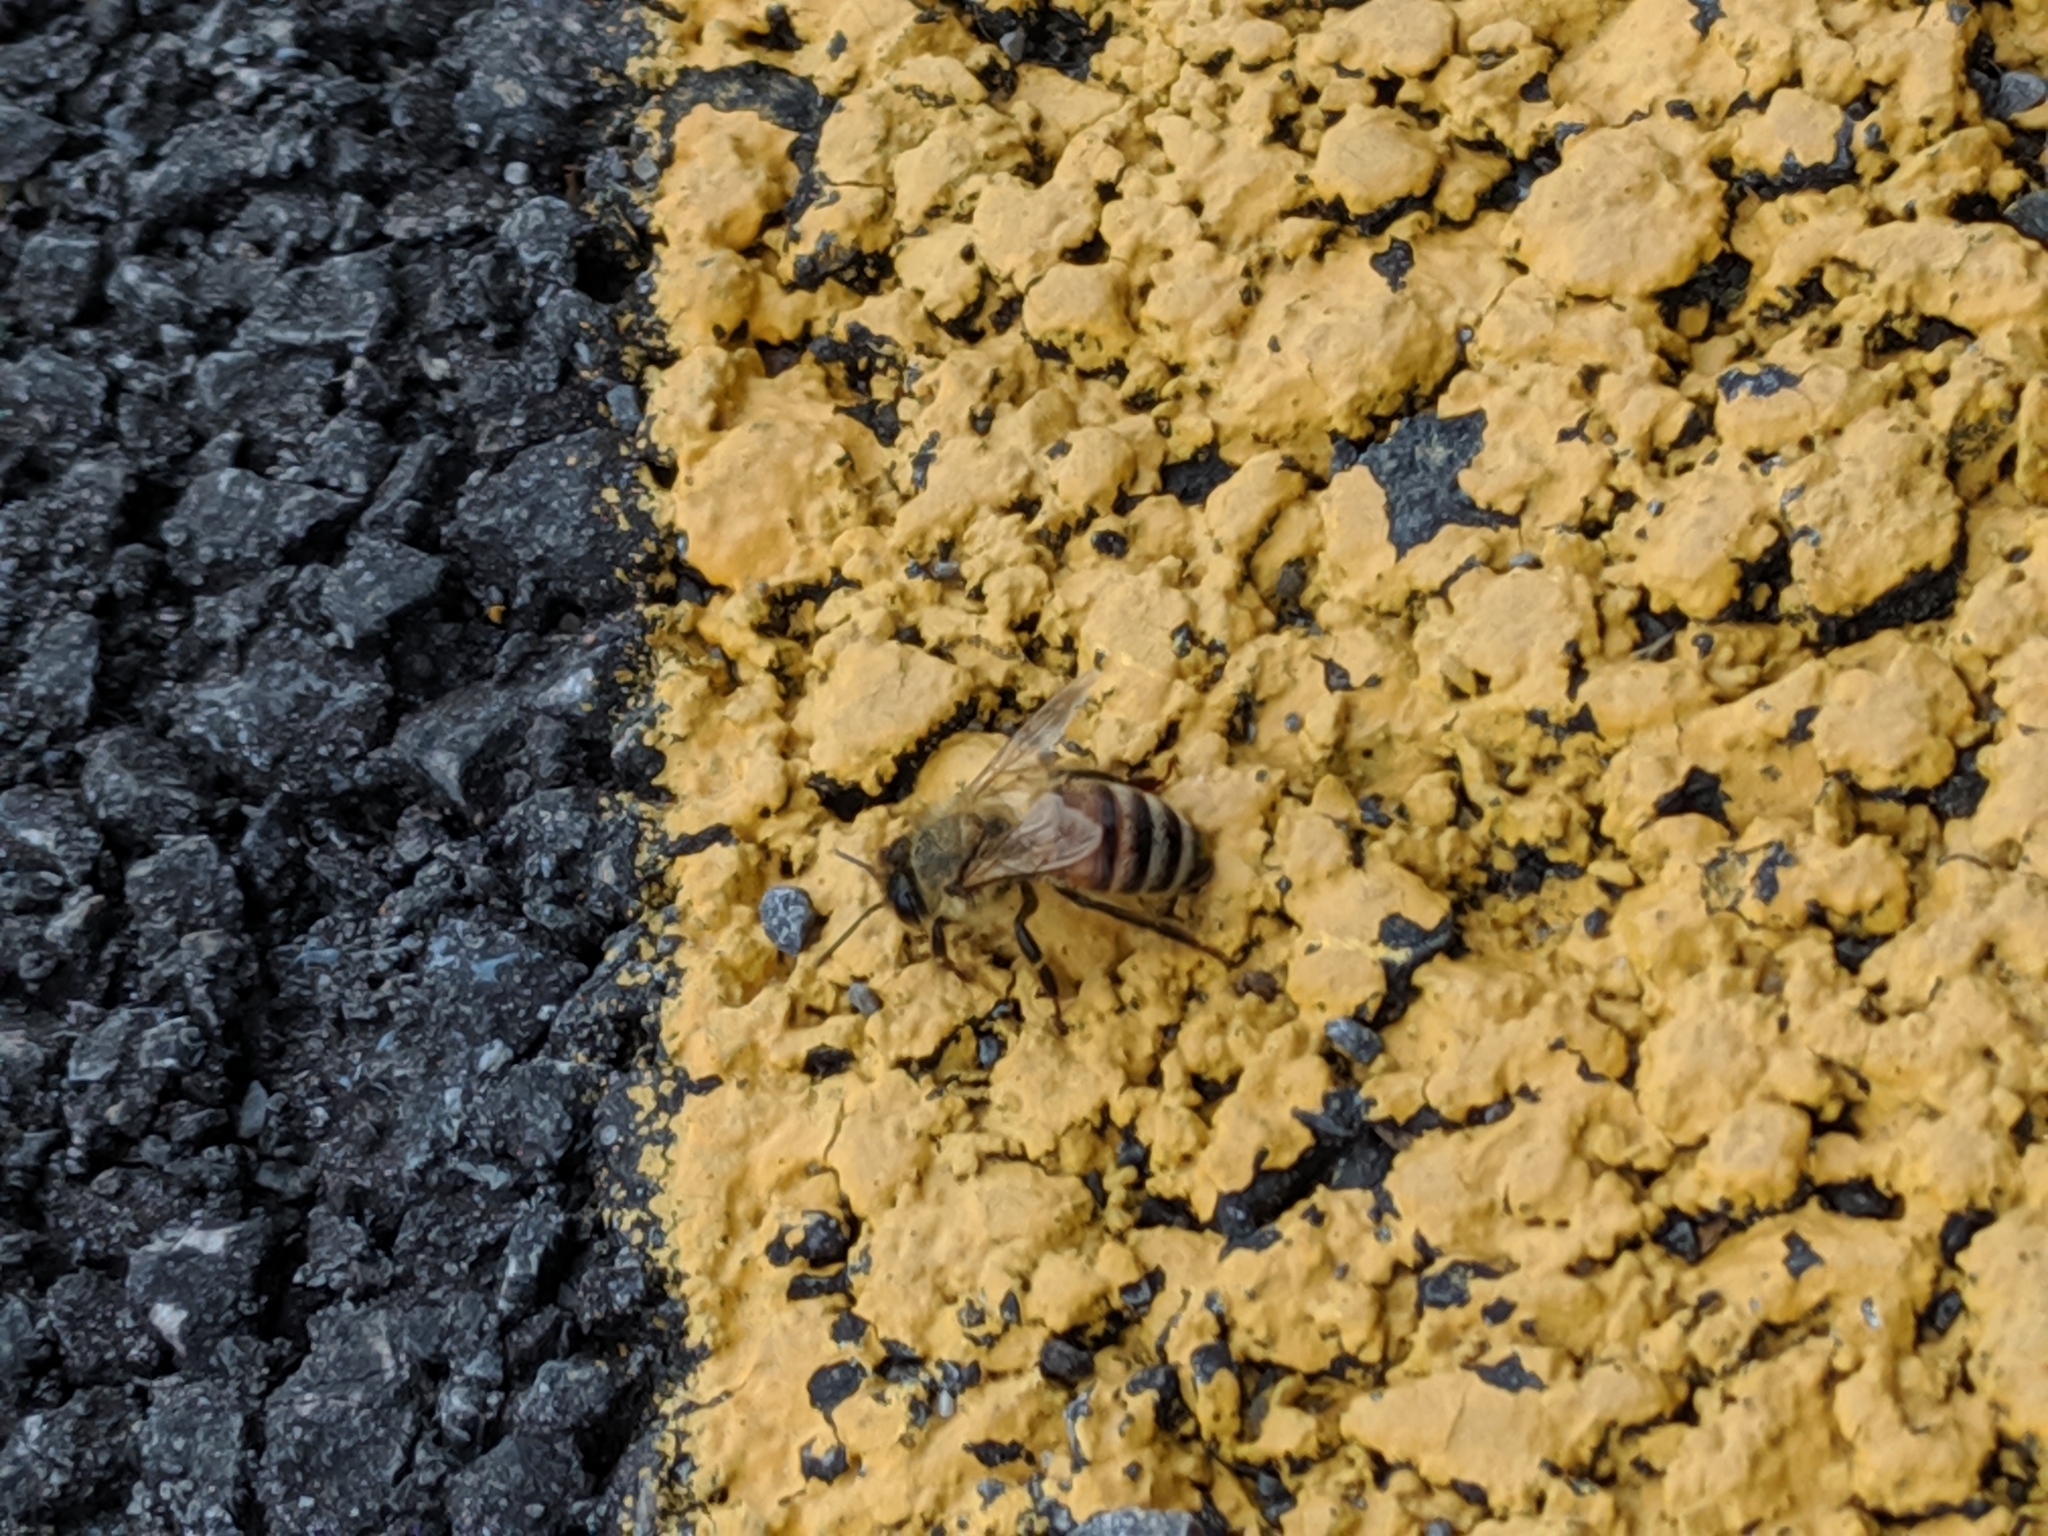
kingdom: Animalia
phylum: Arthropoda
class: Insecta
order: Hymenoptera
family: Apidae
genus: Apis
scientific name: Apis mellifera
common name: Honey bee
